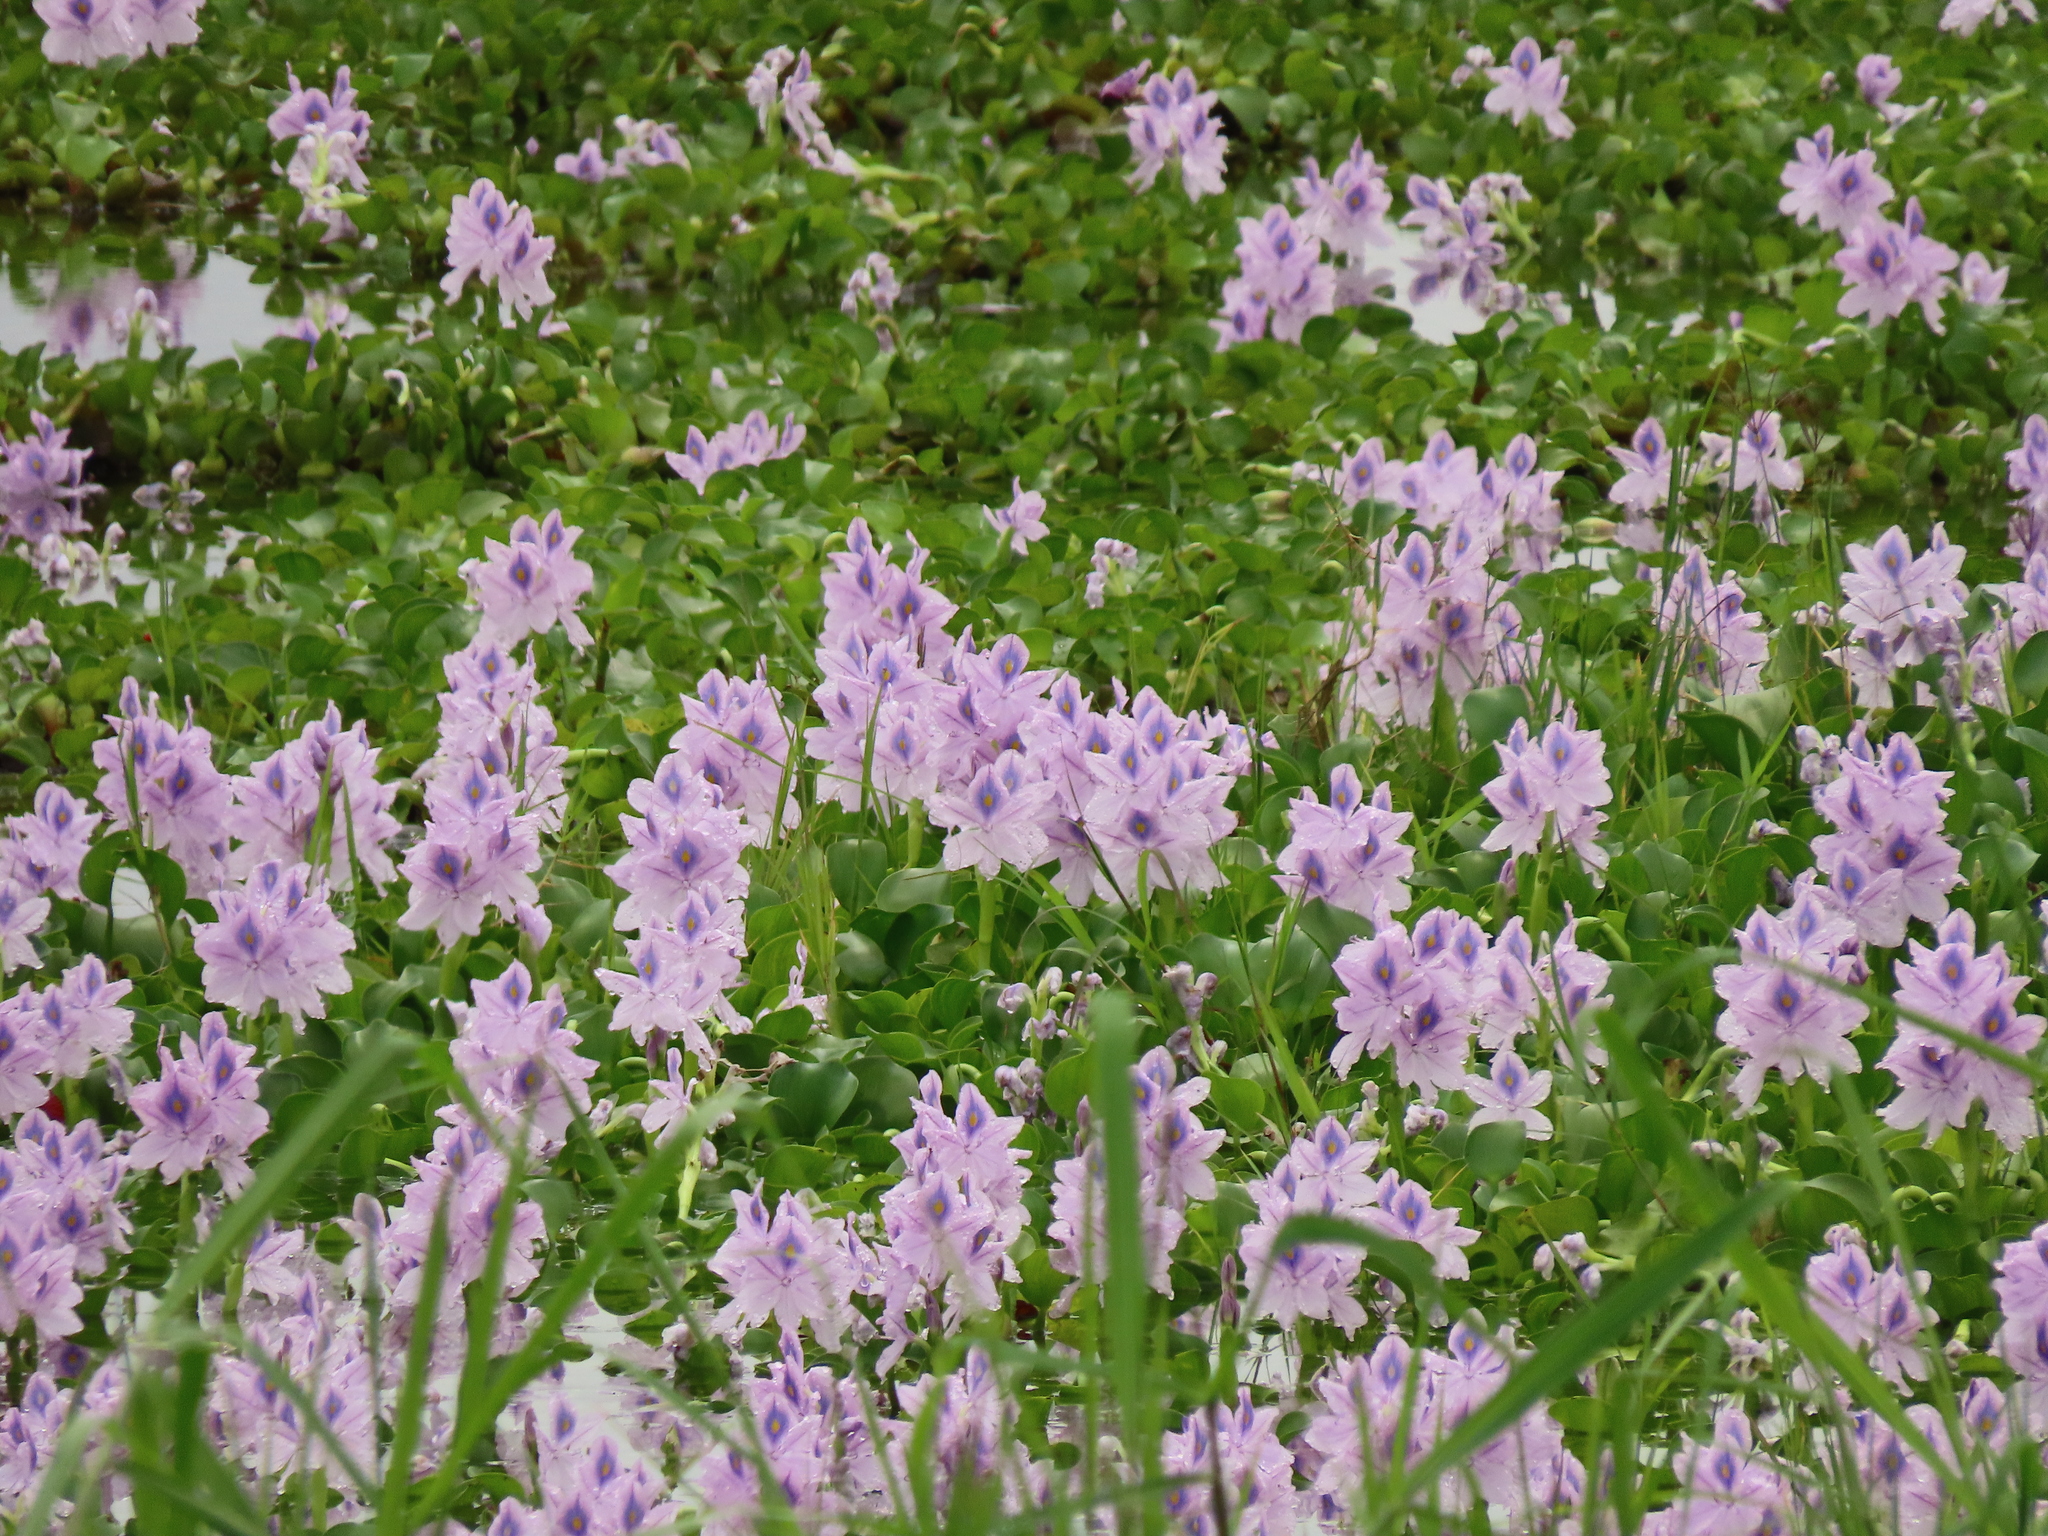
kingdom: Plantae
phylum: Tracheophyta
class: Liliopsida
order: Commelinales
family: Pontederiaceae
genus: Pontederia
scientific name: Pontederia crassipes
